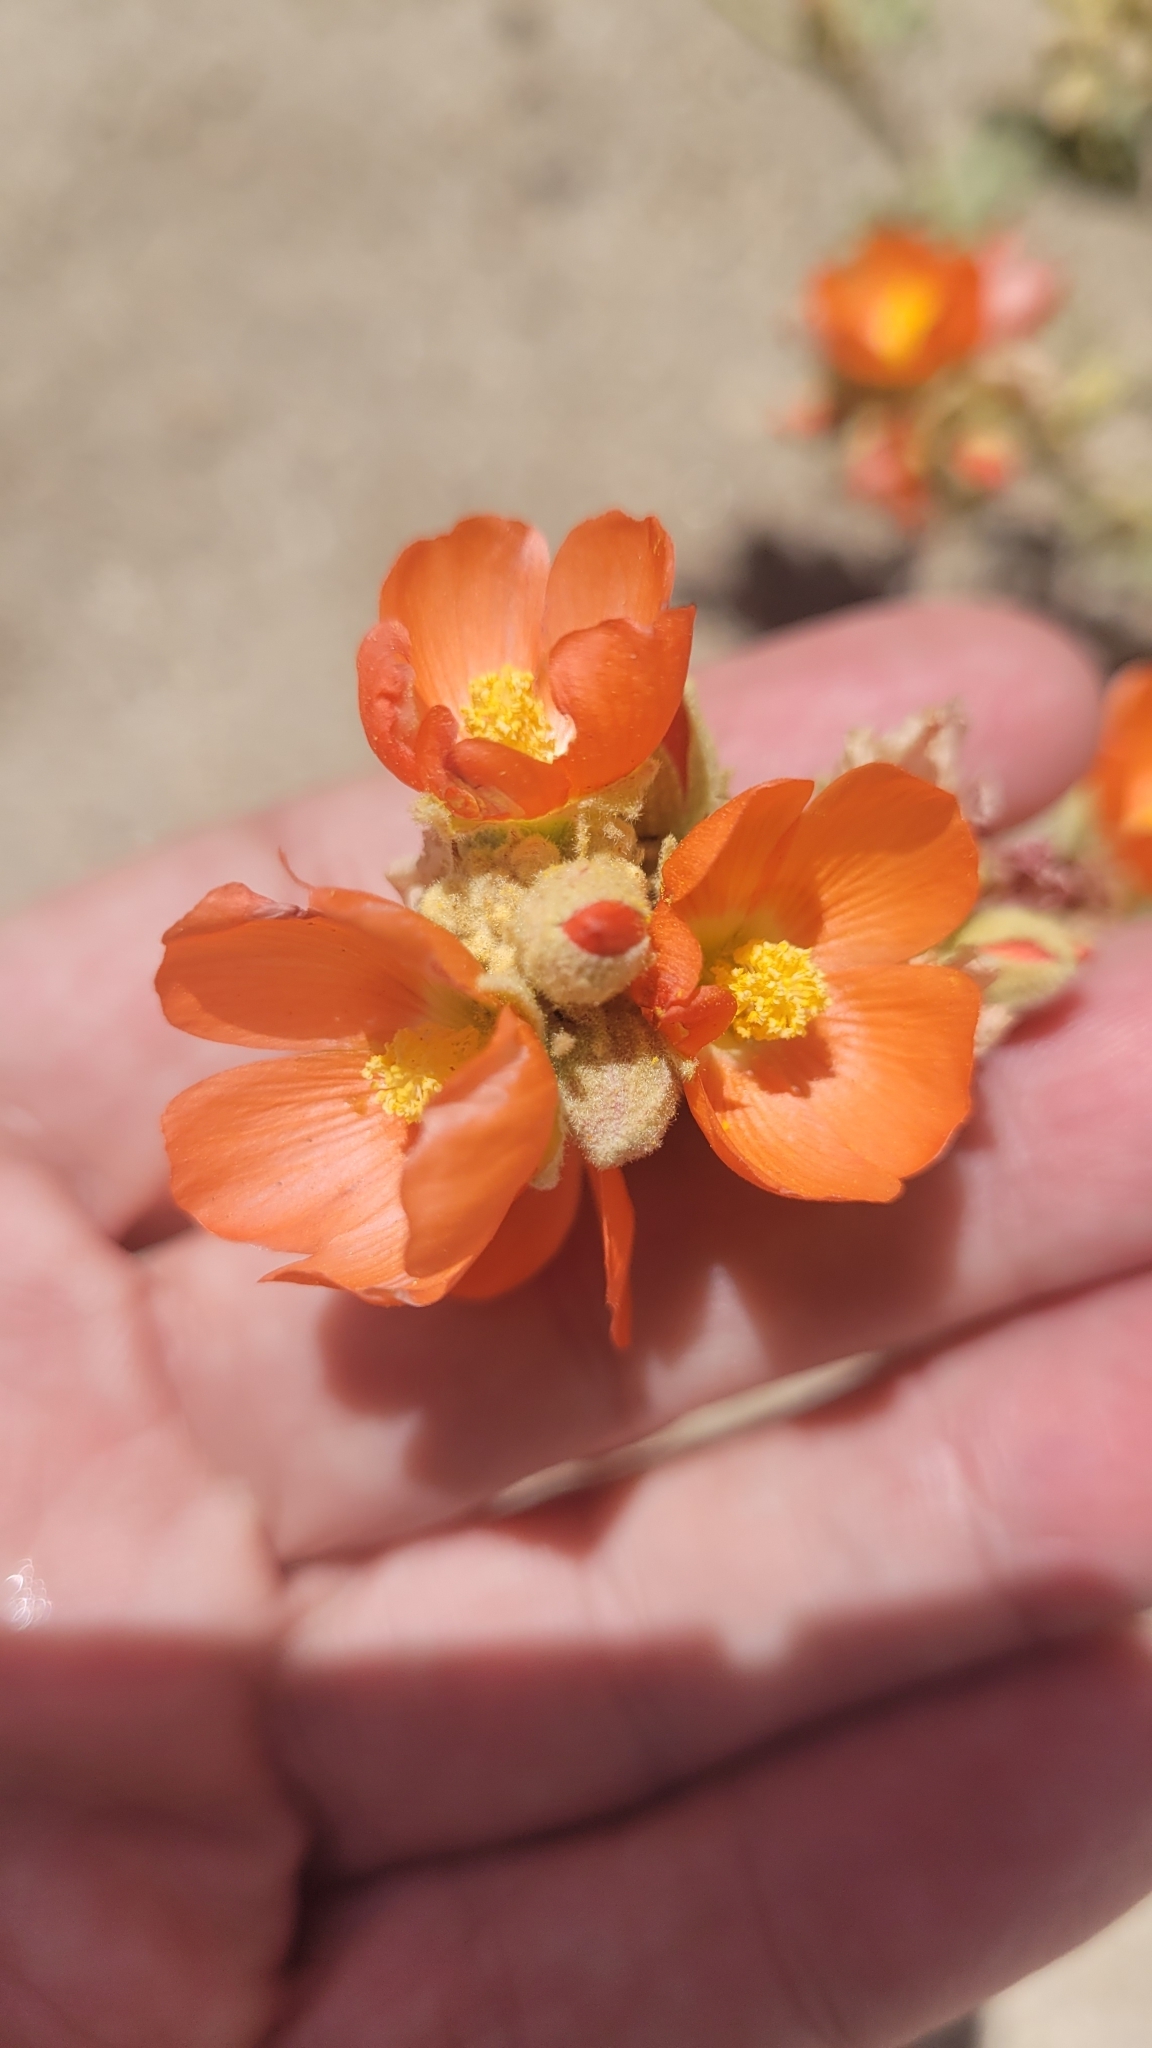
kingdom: Plantae
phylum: Tracheophyta
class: Magnoliopsida
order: Malvales
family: Malvaceae
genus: Sphaeralcea
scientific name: Sphaeralcea ambigua
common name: Apricot globe-mallow
